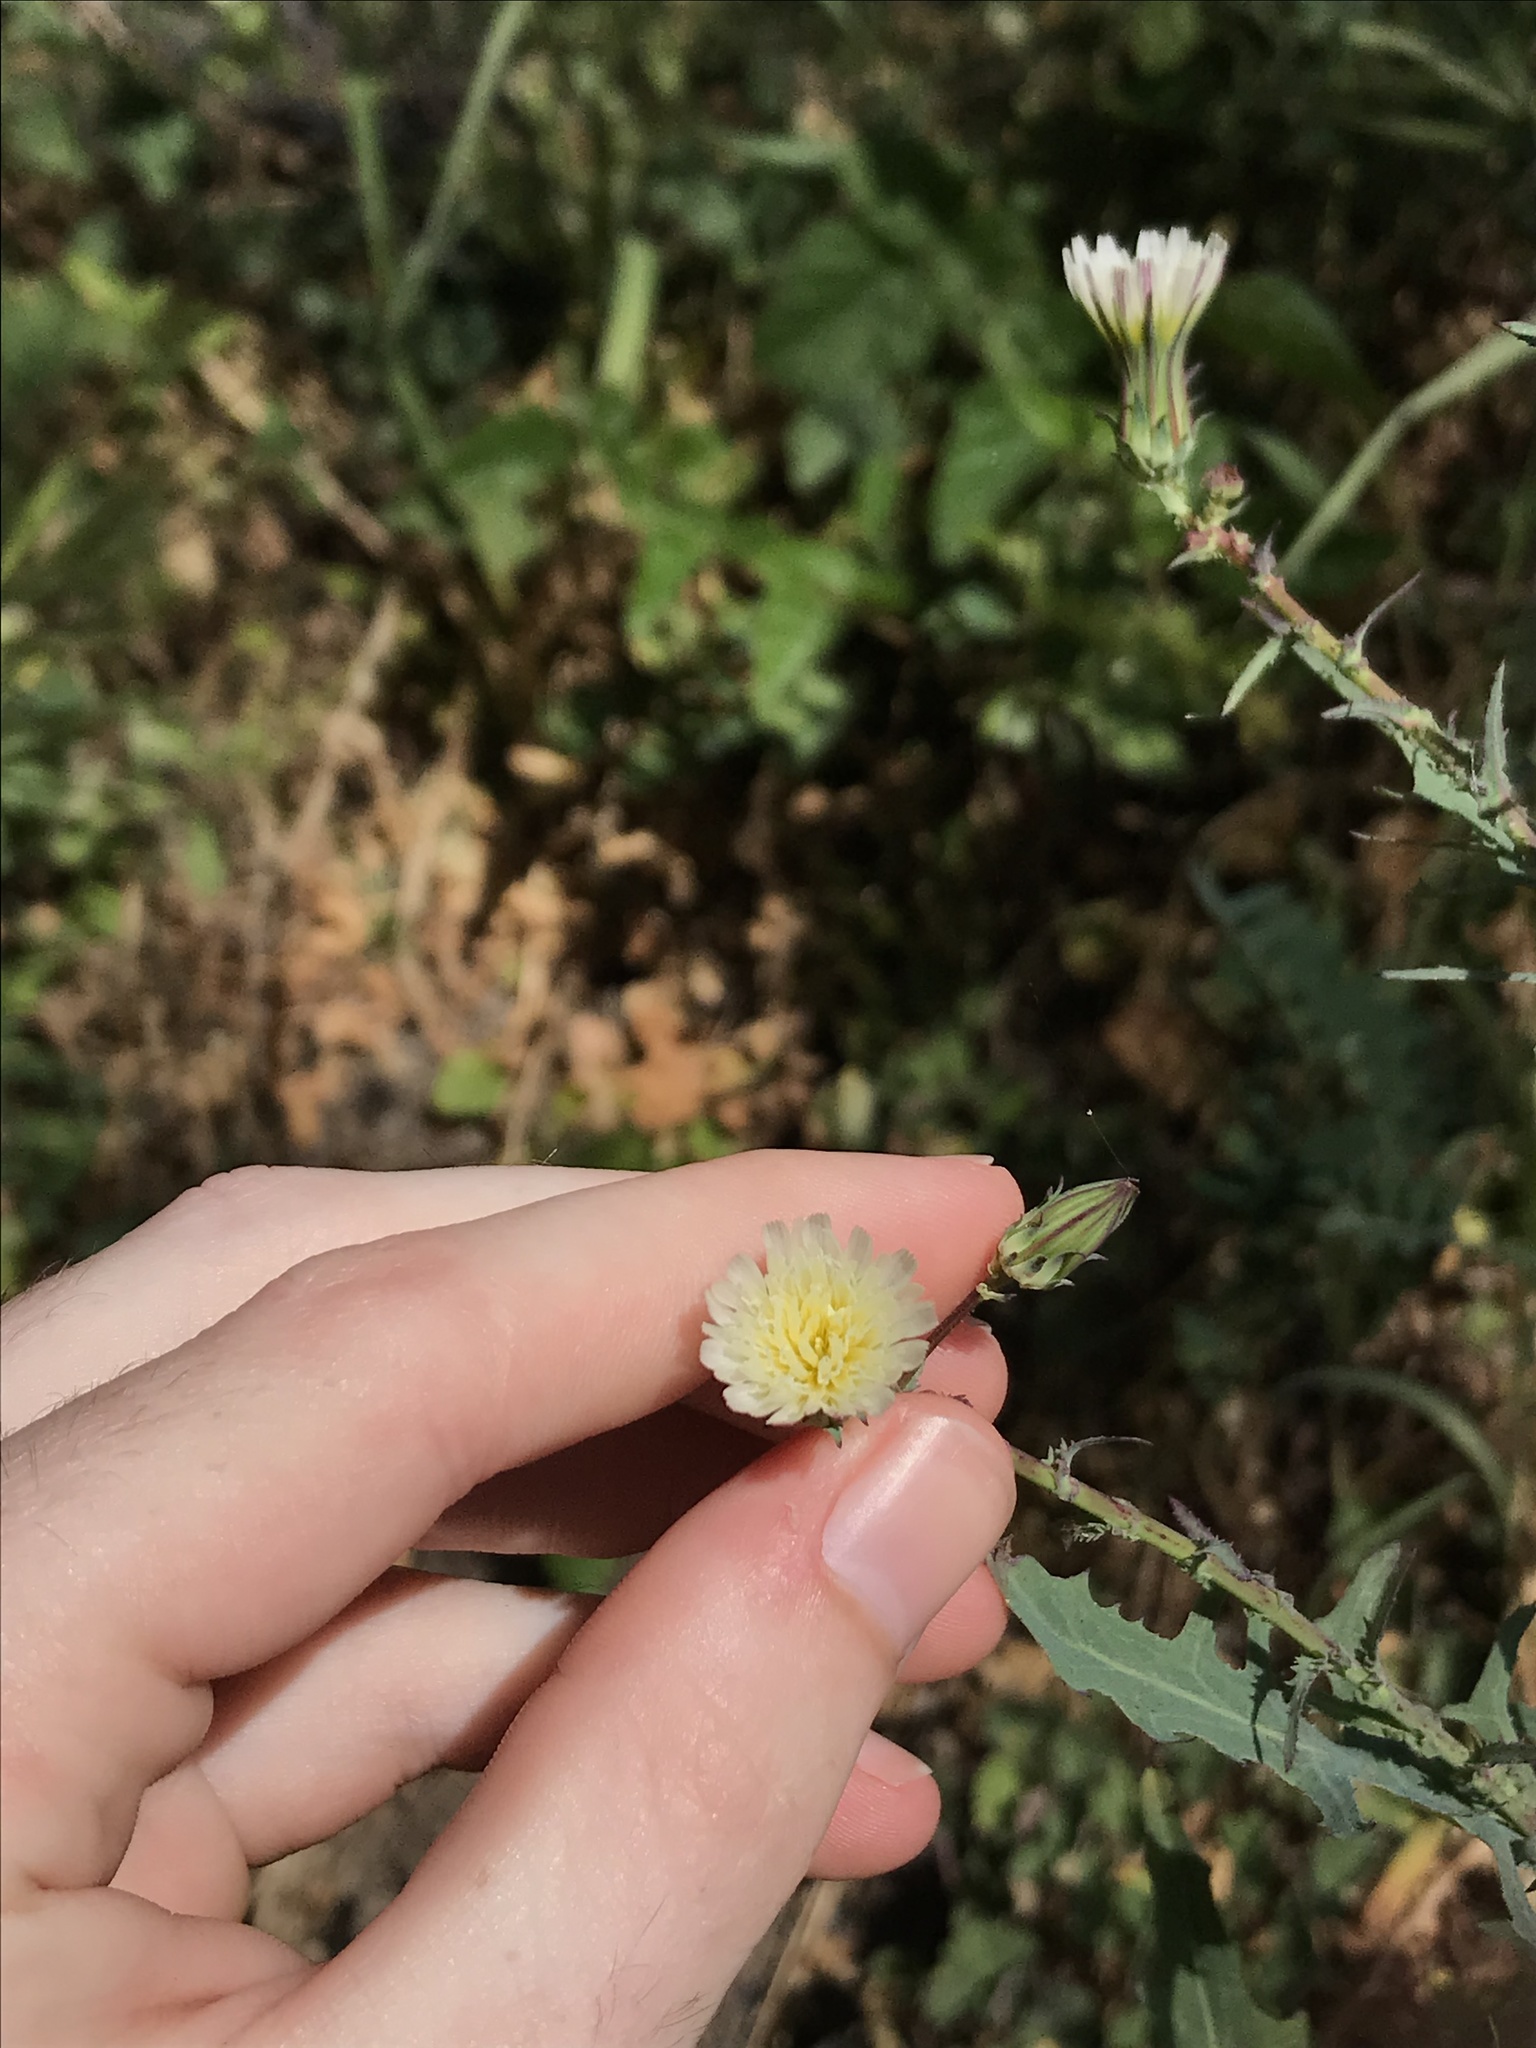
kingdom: Plantae
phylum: Tracheophyta
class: Magnoliopsida
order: Asterales
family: Asteraceae
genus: Rafinesquia
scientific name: Rafinesquia californica
